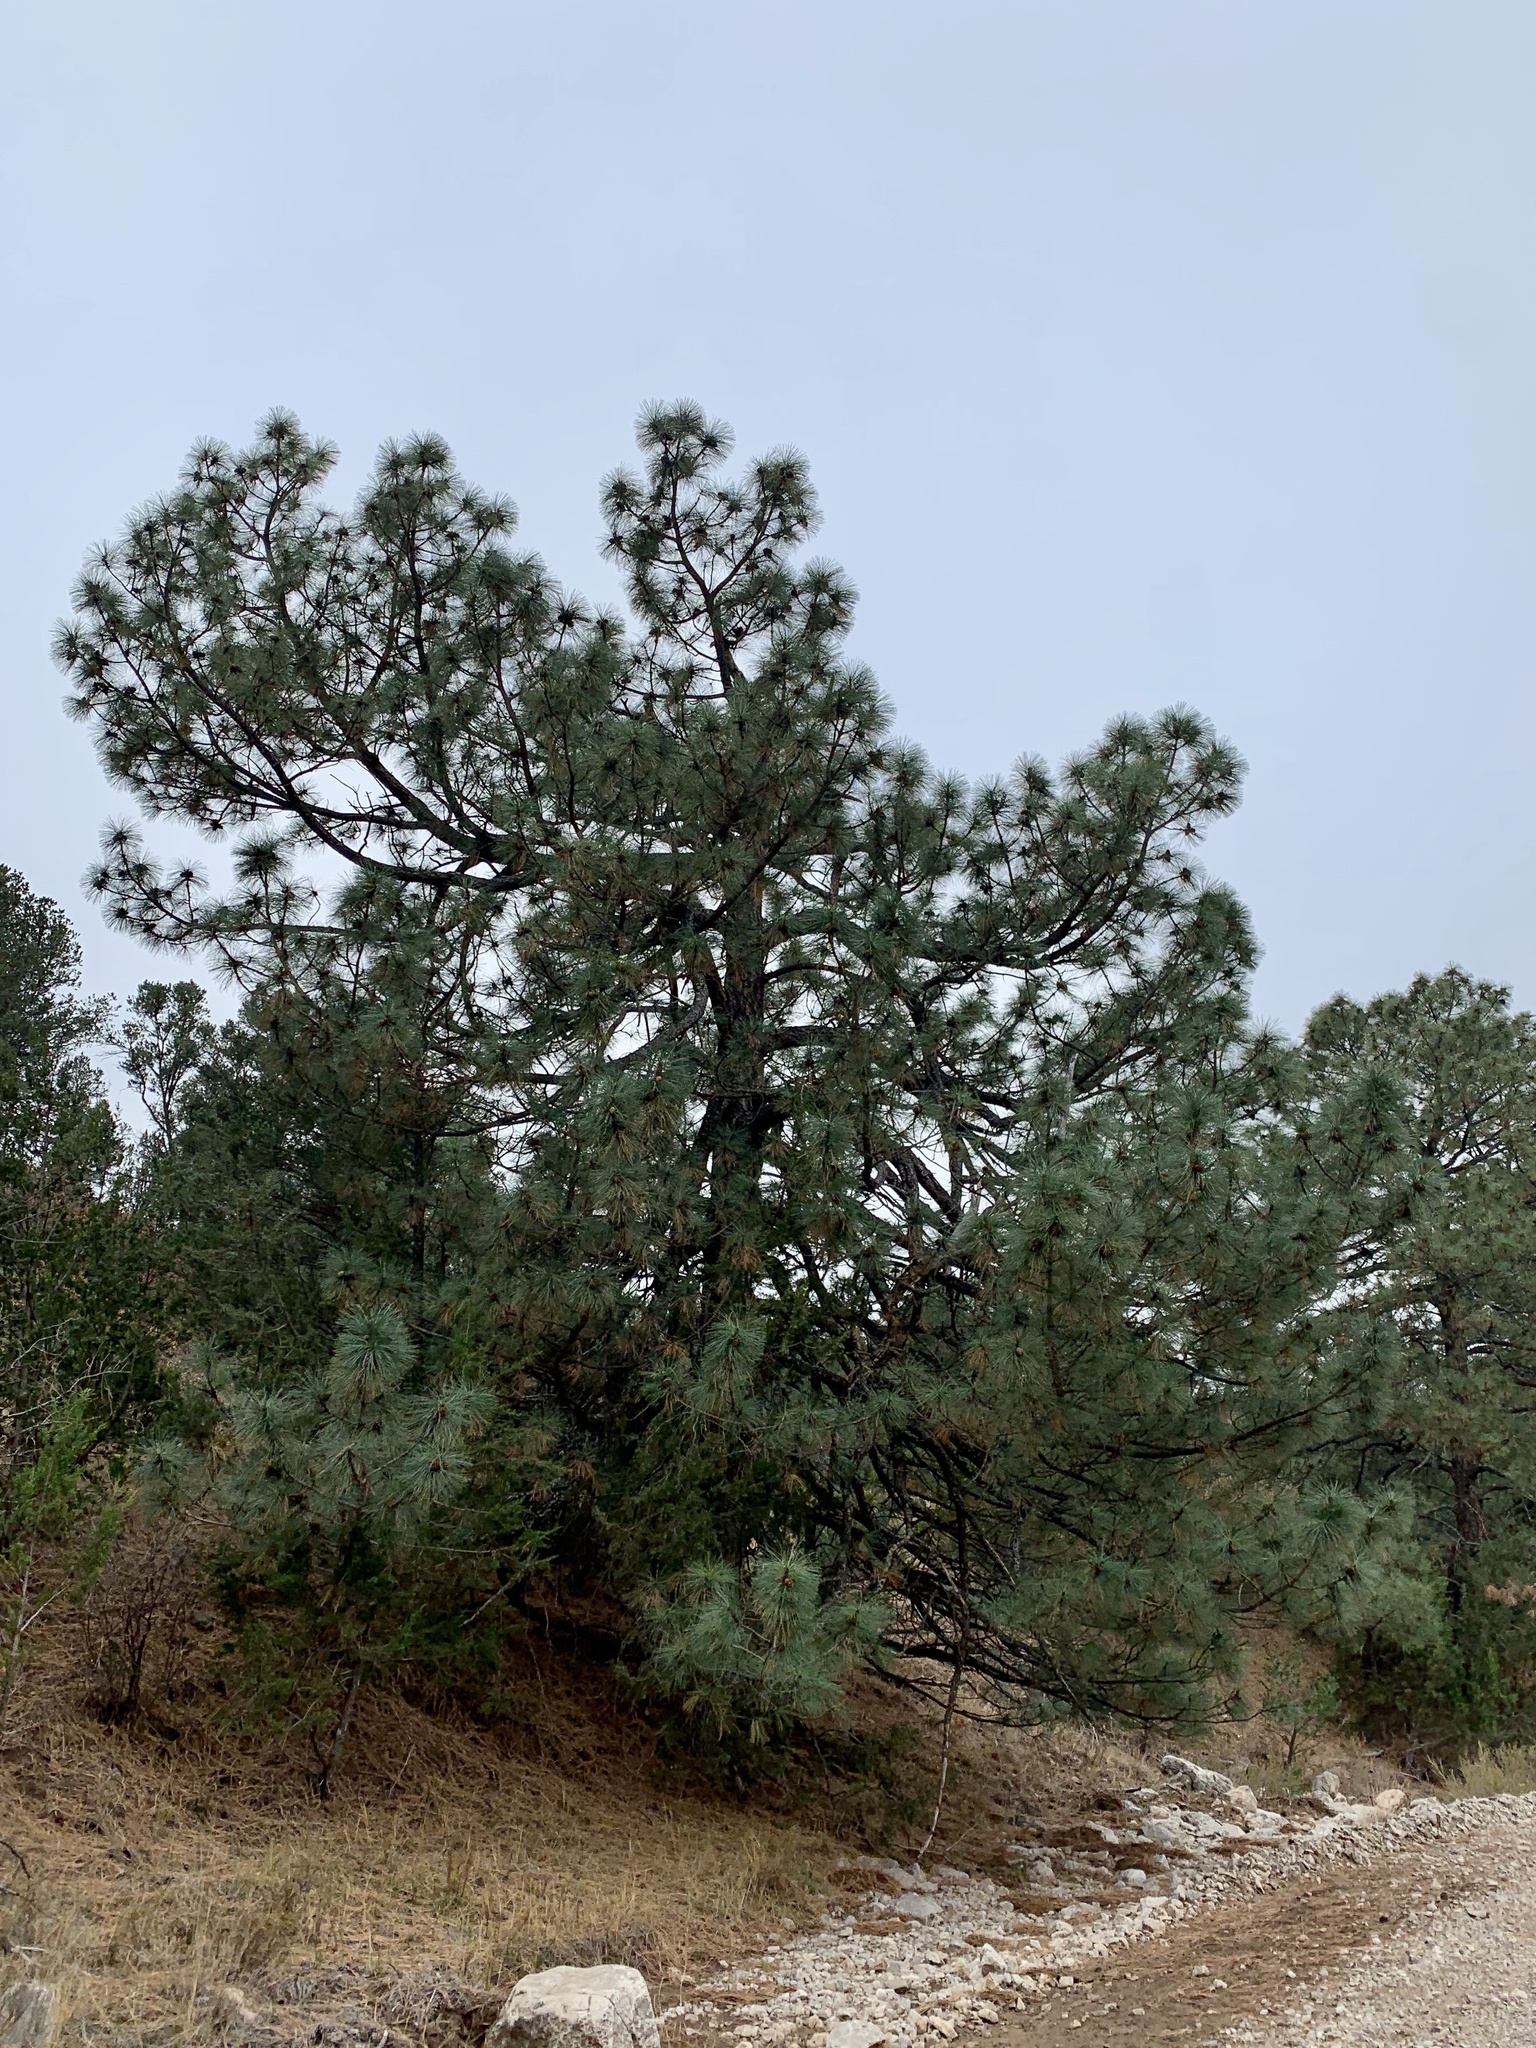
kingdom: Plantae
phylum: Tracheophyta
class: Pinopsida
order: Pinales
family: Pinaceae
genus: Pinus
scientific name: Pinus ponderosa
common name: Western yellow-pine
